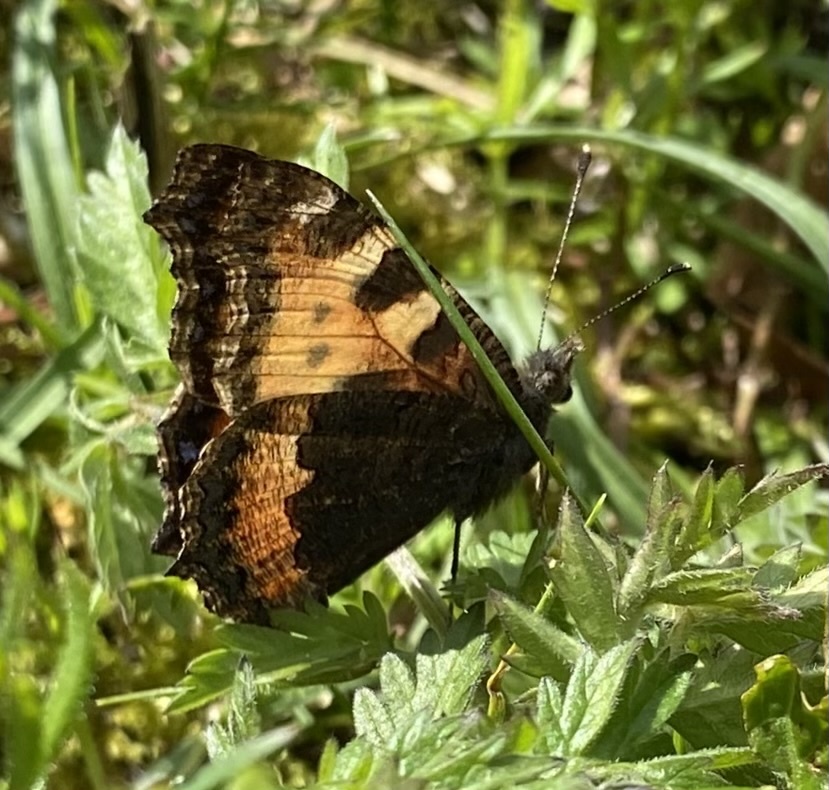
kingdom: Animalia
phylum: Arthropoda
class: Insecta
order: Lepidoptera
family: Nymphalidae
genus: Aglais
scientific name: Aglais urticae
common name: Small tortoiseshell
